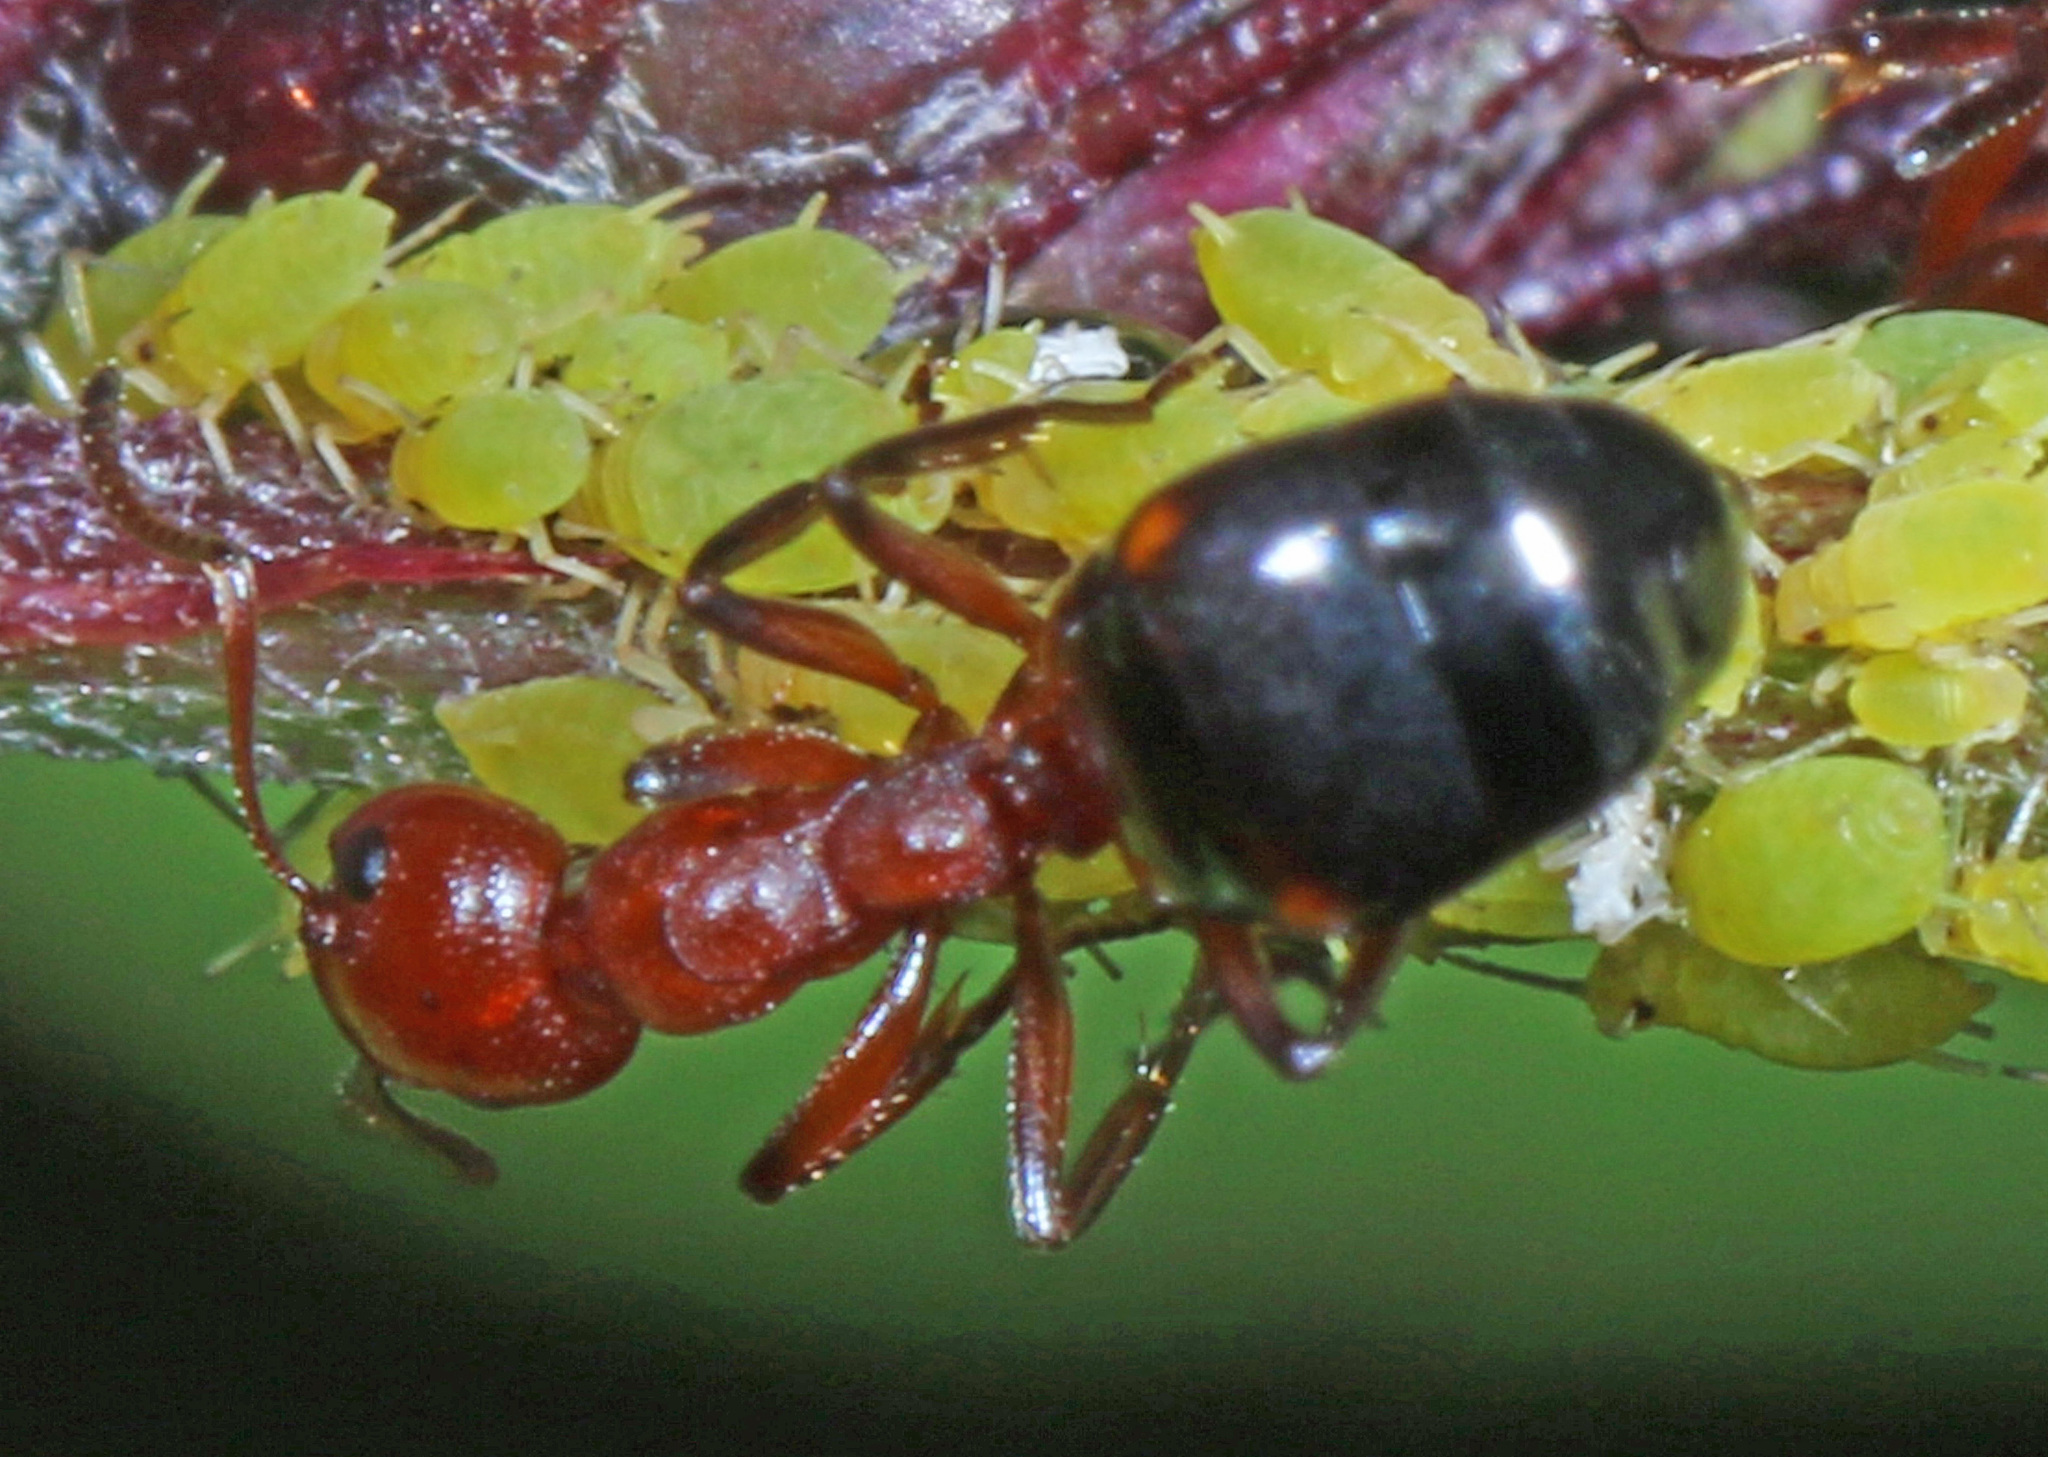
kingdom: Animalia
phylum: Arthropoda
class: Insecta
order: Hymenoptera
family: Formicidae
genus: Dolichoderus
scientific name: Dolichoderus mariae
